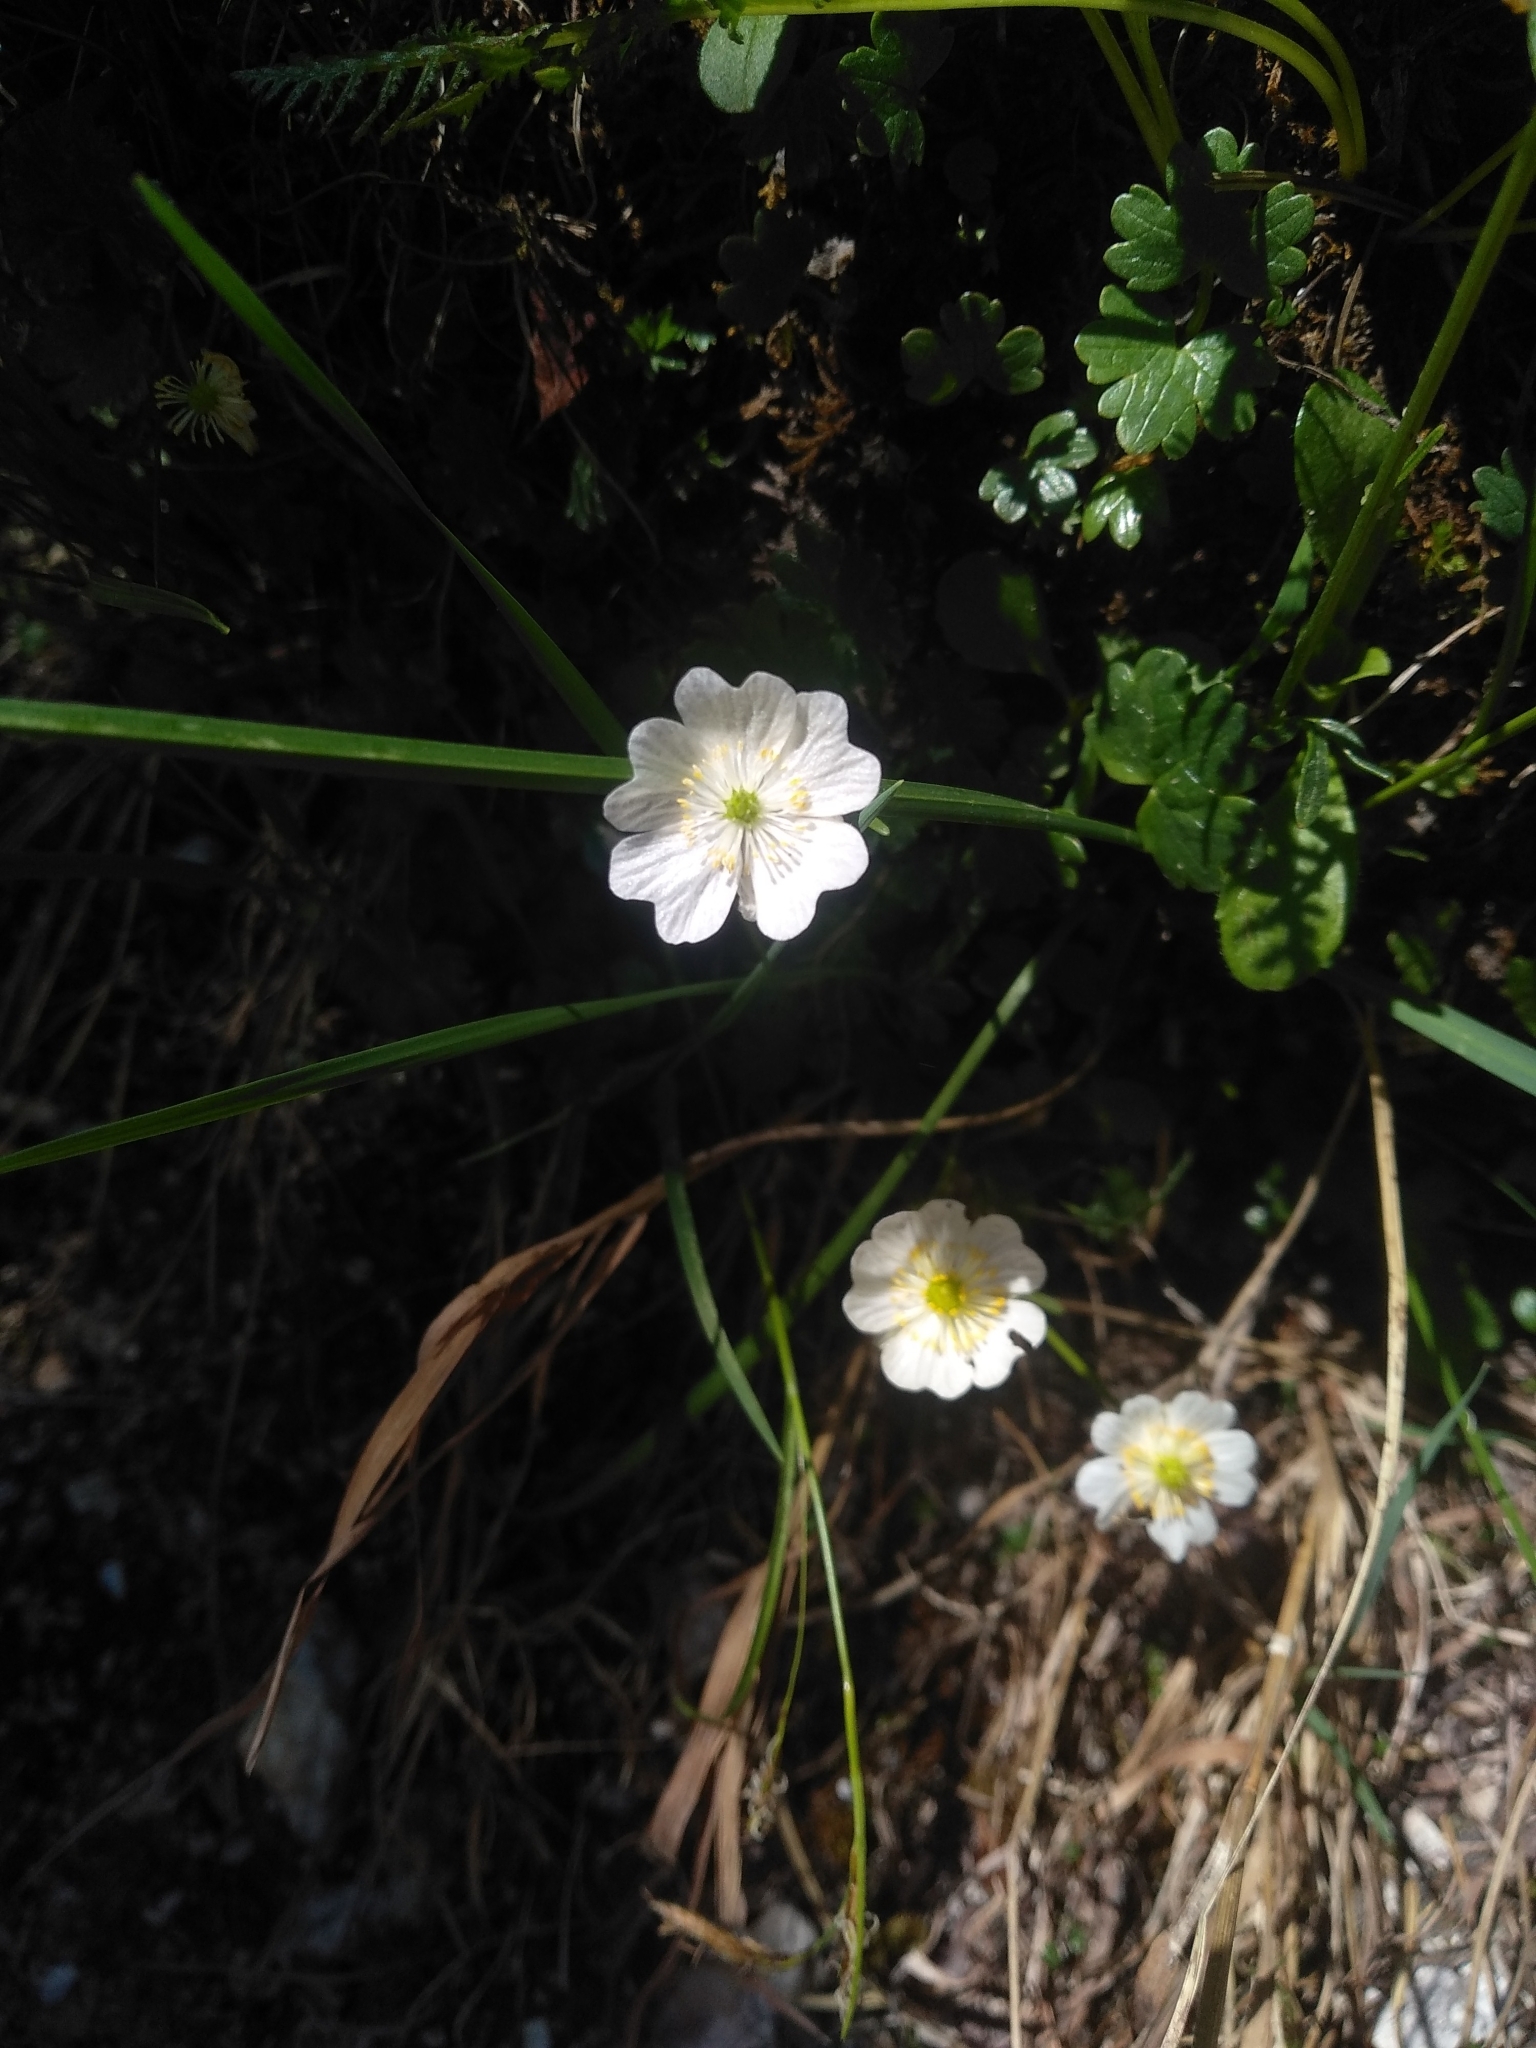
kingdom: Plantae
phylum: Tracheophyta
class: Magnoliopsida
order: Ranunculales
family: Ranunculaceae
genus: Ranunculus
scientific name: Ranunculus alpestris
